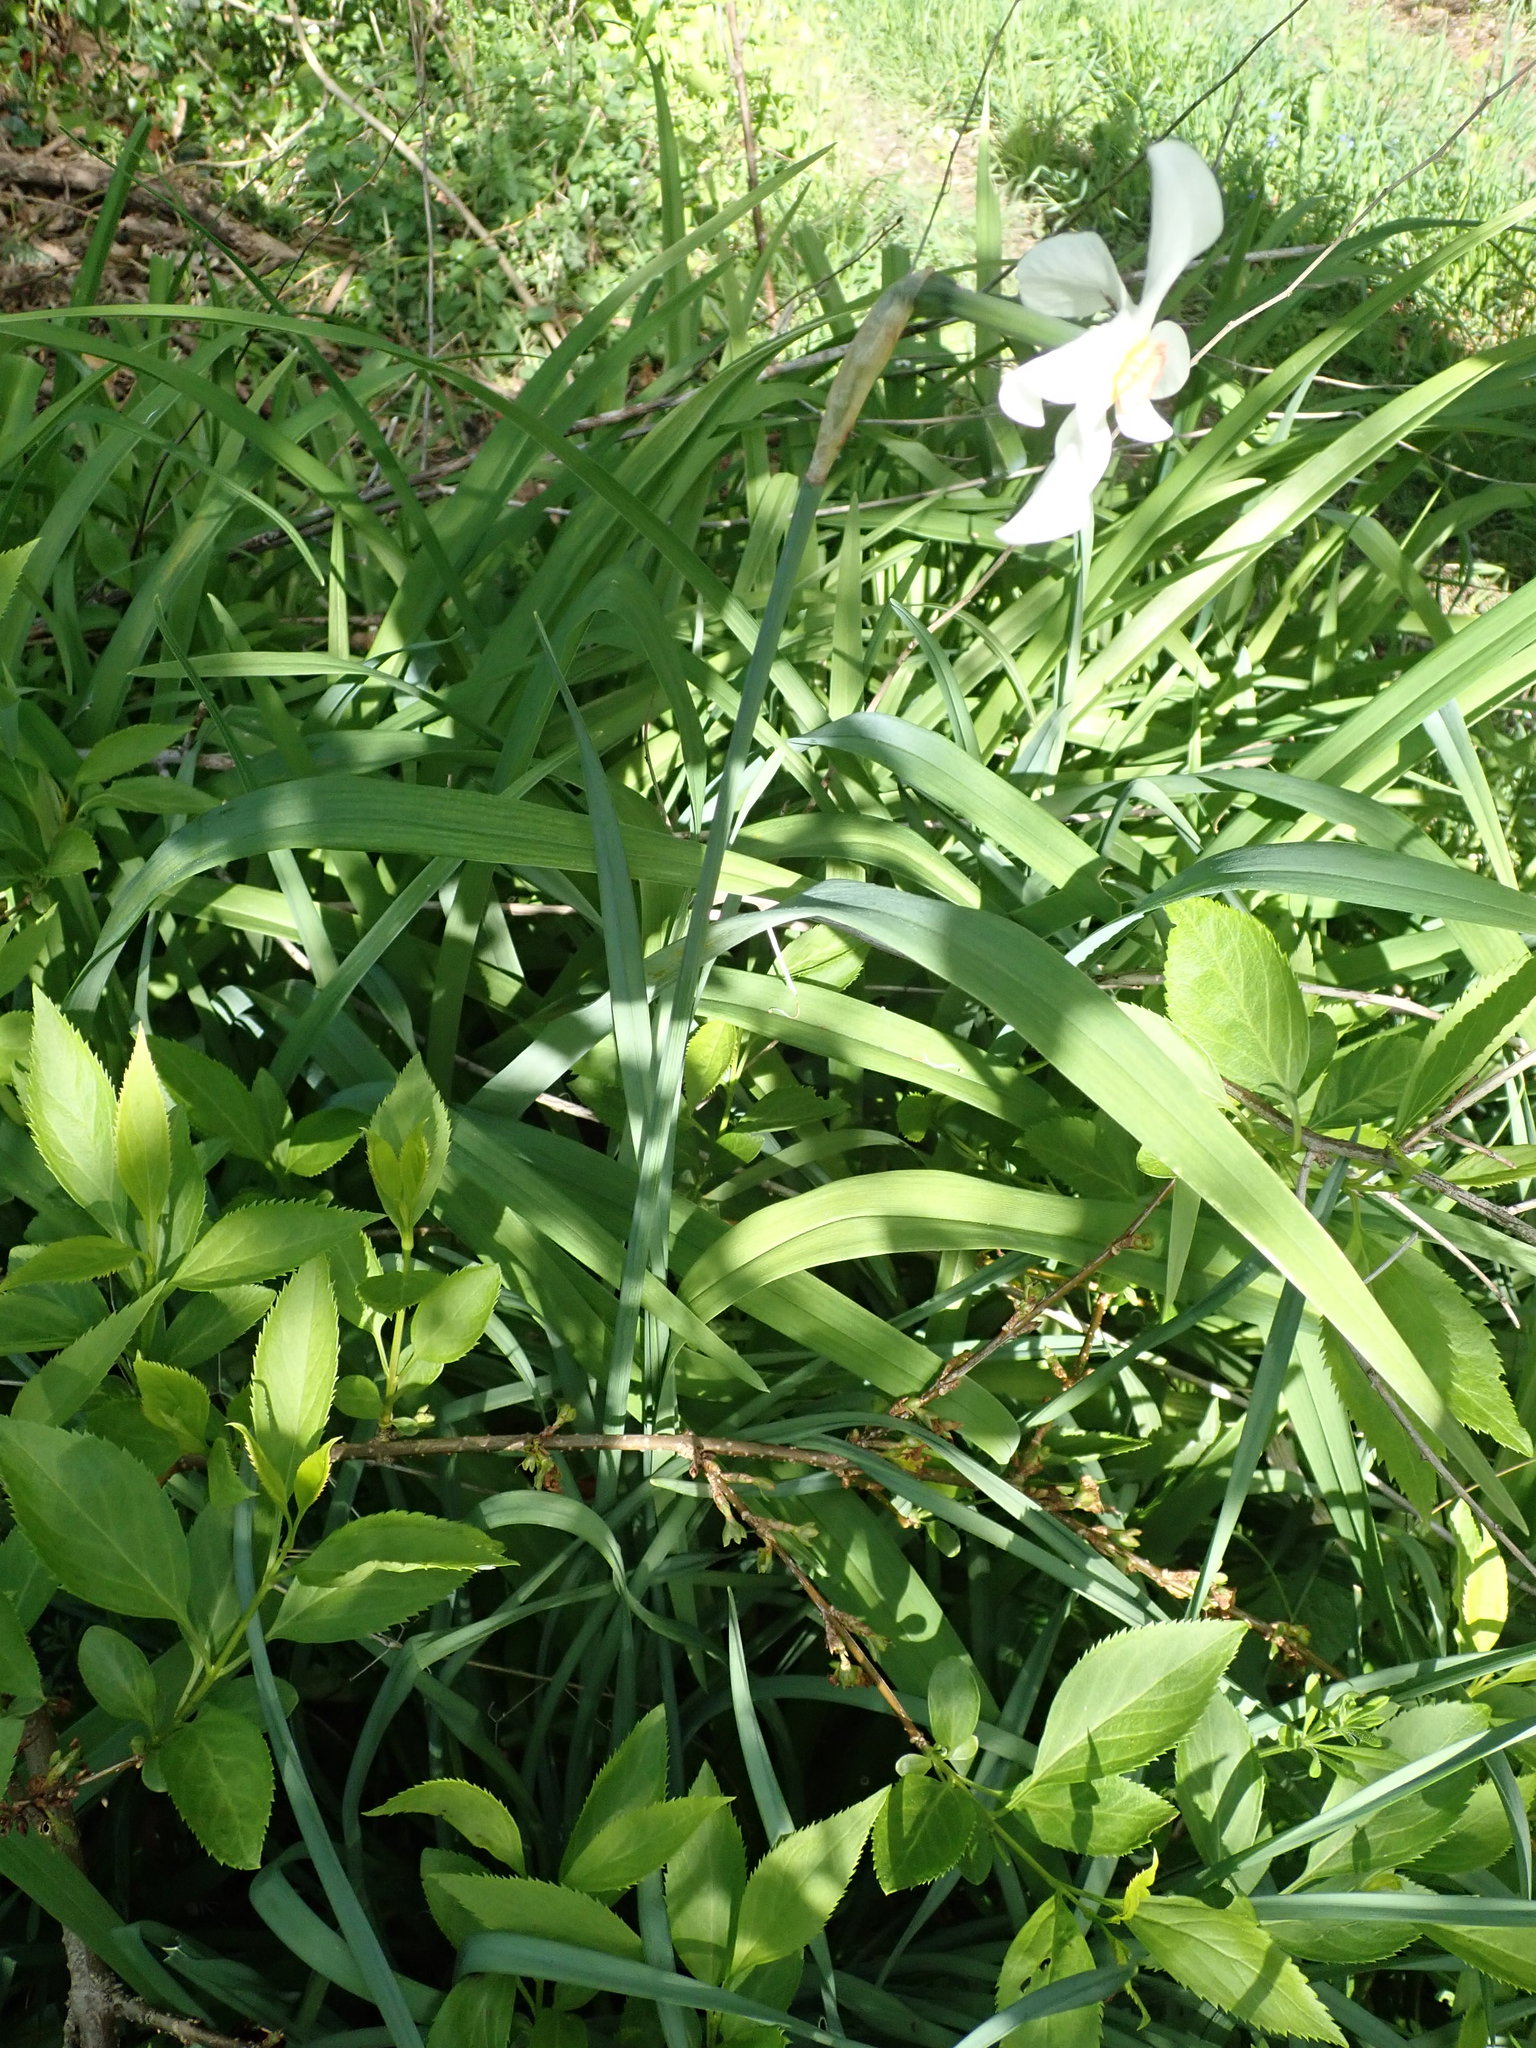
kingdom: Plantae
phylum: Tracheophyta
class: Liliopsida
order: Asparagales
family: Amaryllidaceae
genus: Narcissus
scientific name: Narcissus poeticus
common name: Pheasant's-eye daffodil
